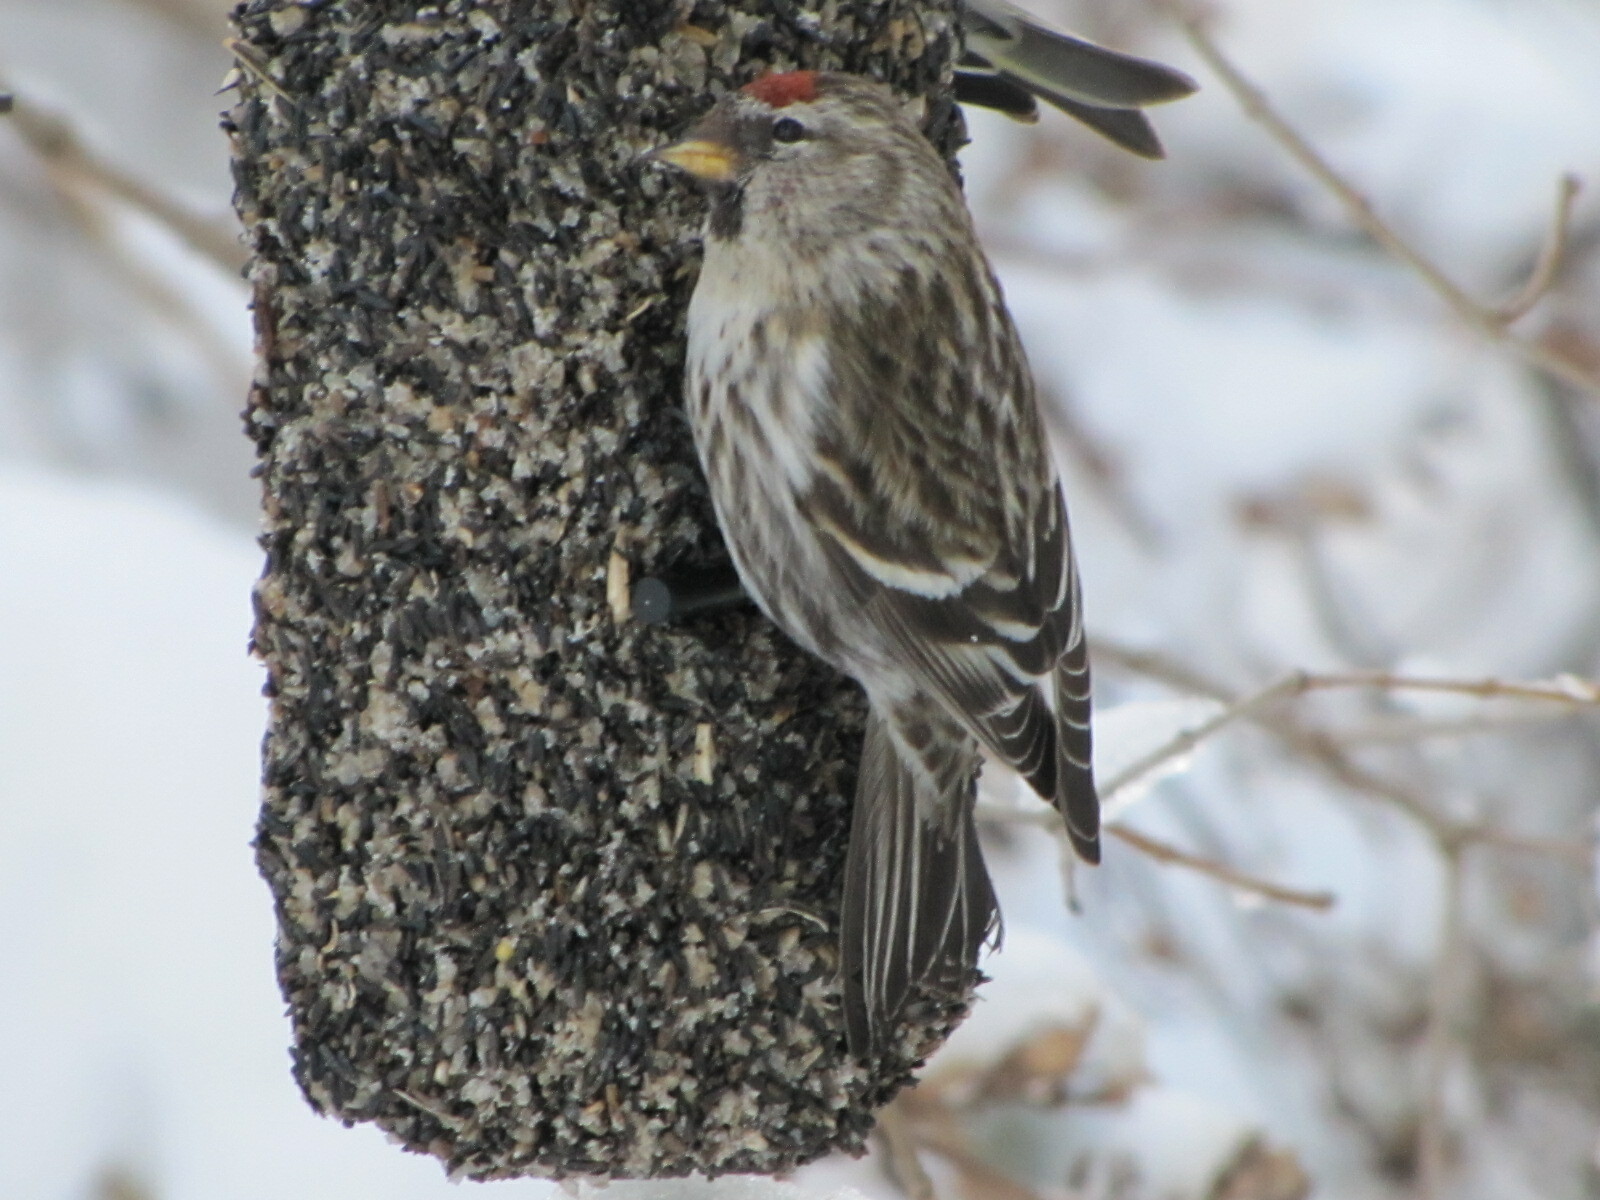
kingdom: Animalia
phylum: Chordata
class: Aves
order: Passeriformes
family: Fringillidae
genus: Acanthis
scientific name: Acanthis flammea
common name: Common redpoll
